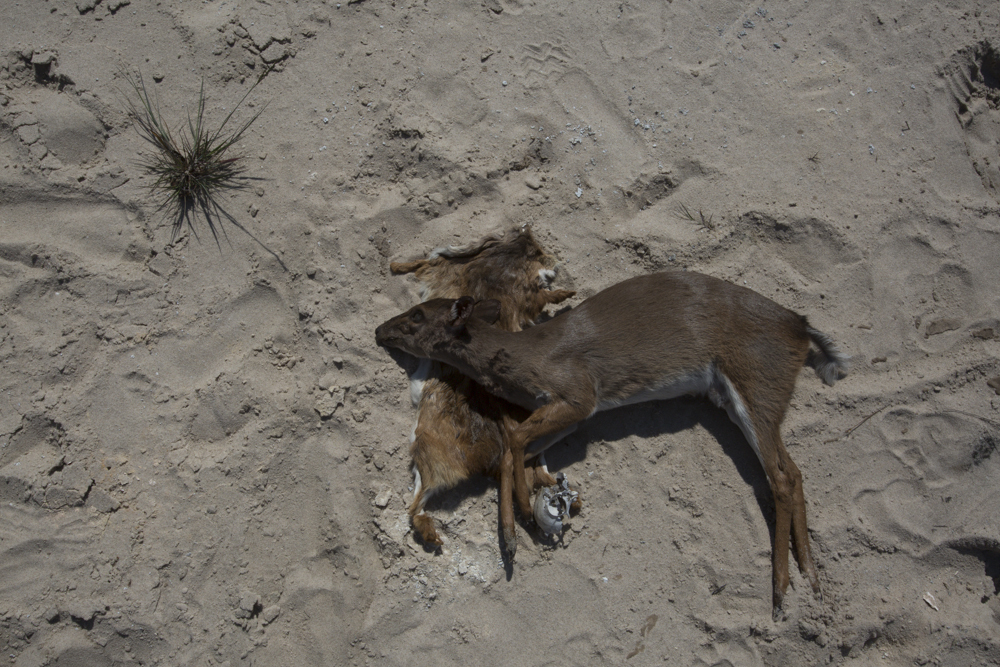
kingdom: Animalia
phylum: Chordata
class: Mammalia
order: Artiodactyla
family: Bovidae
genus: Philantomba
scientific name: Philantomba monticola
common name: Blue duiker
